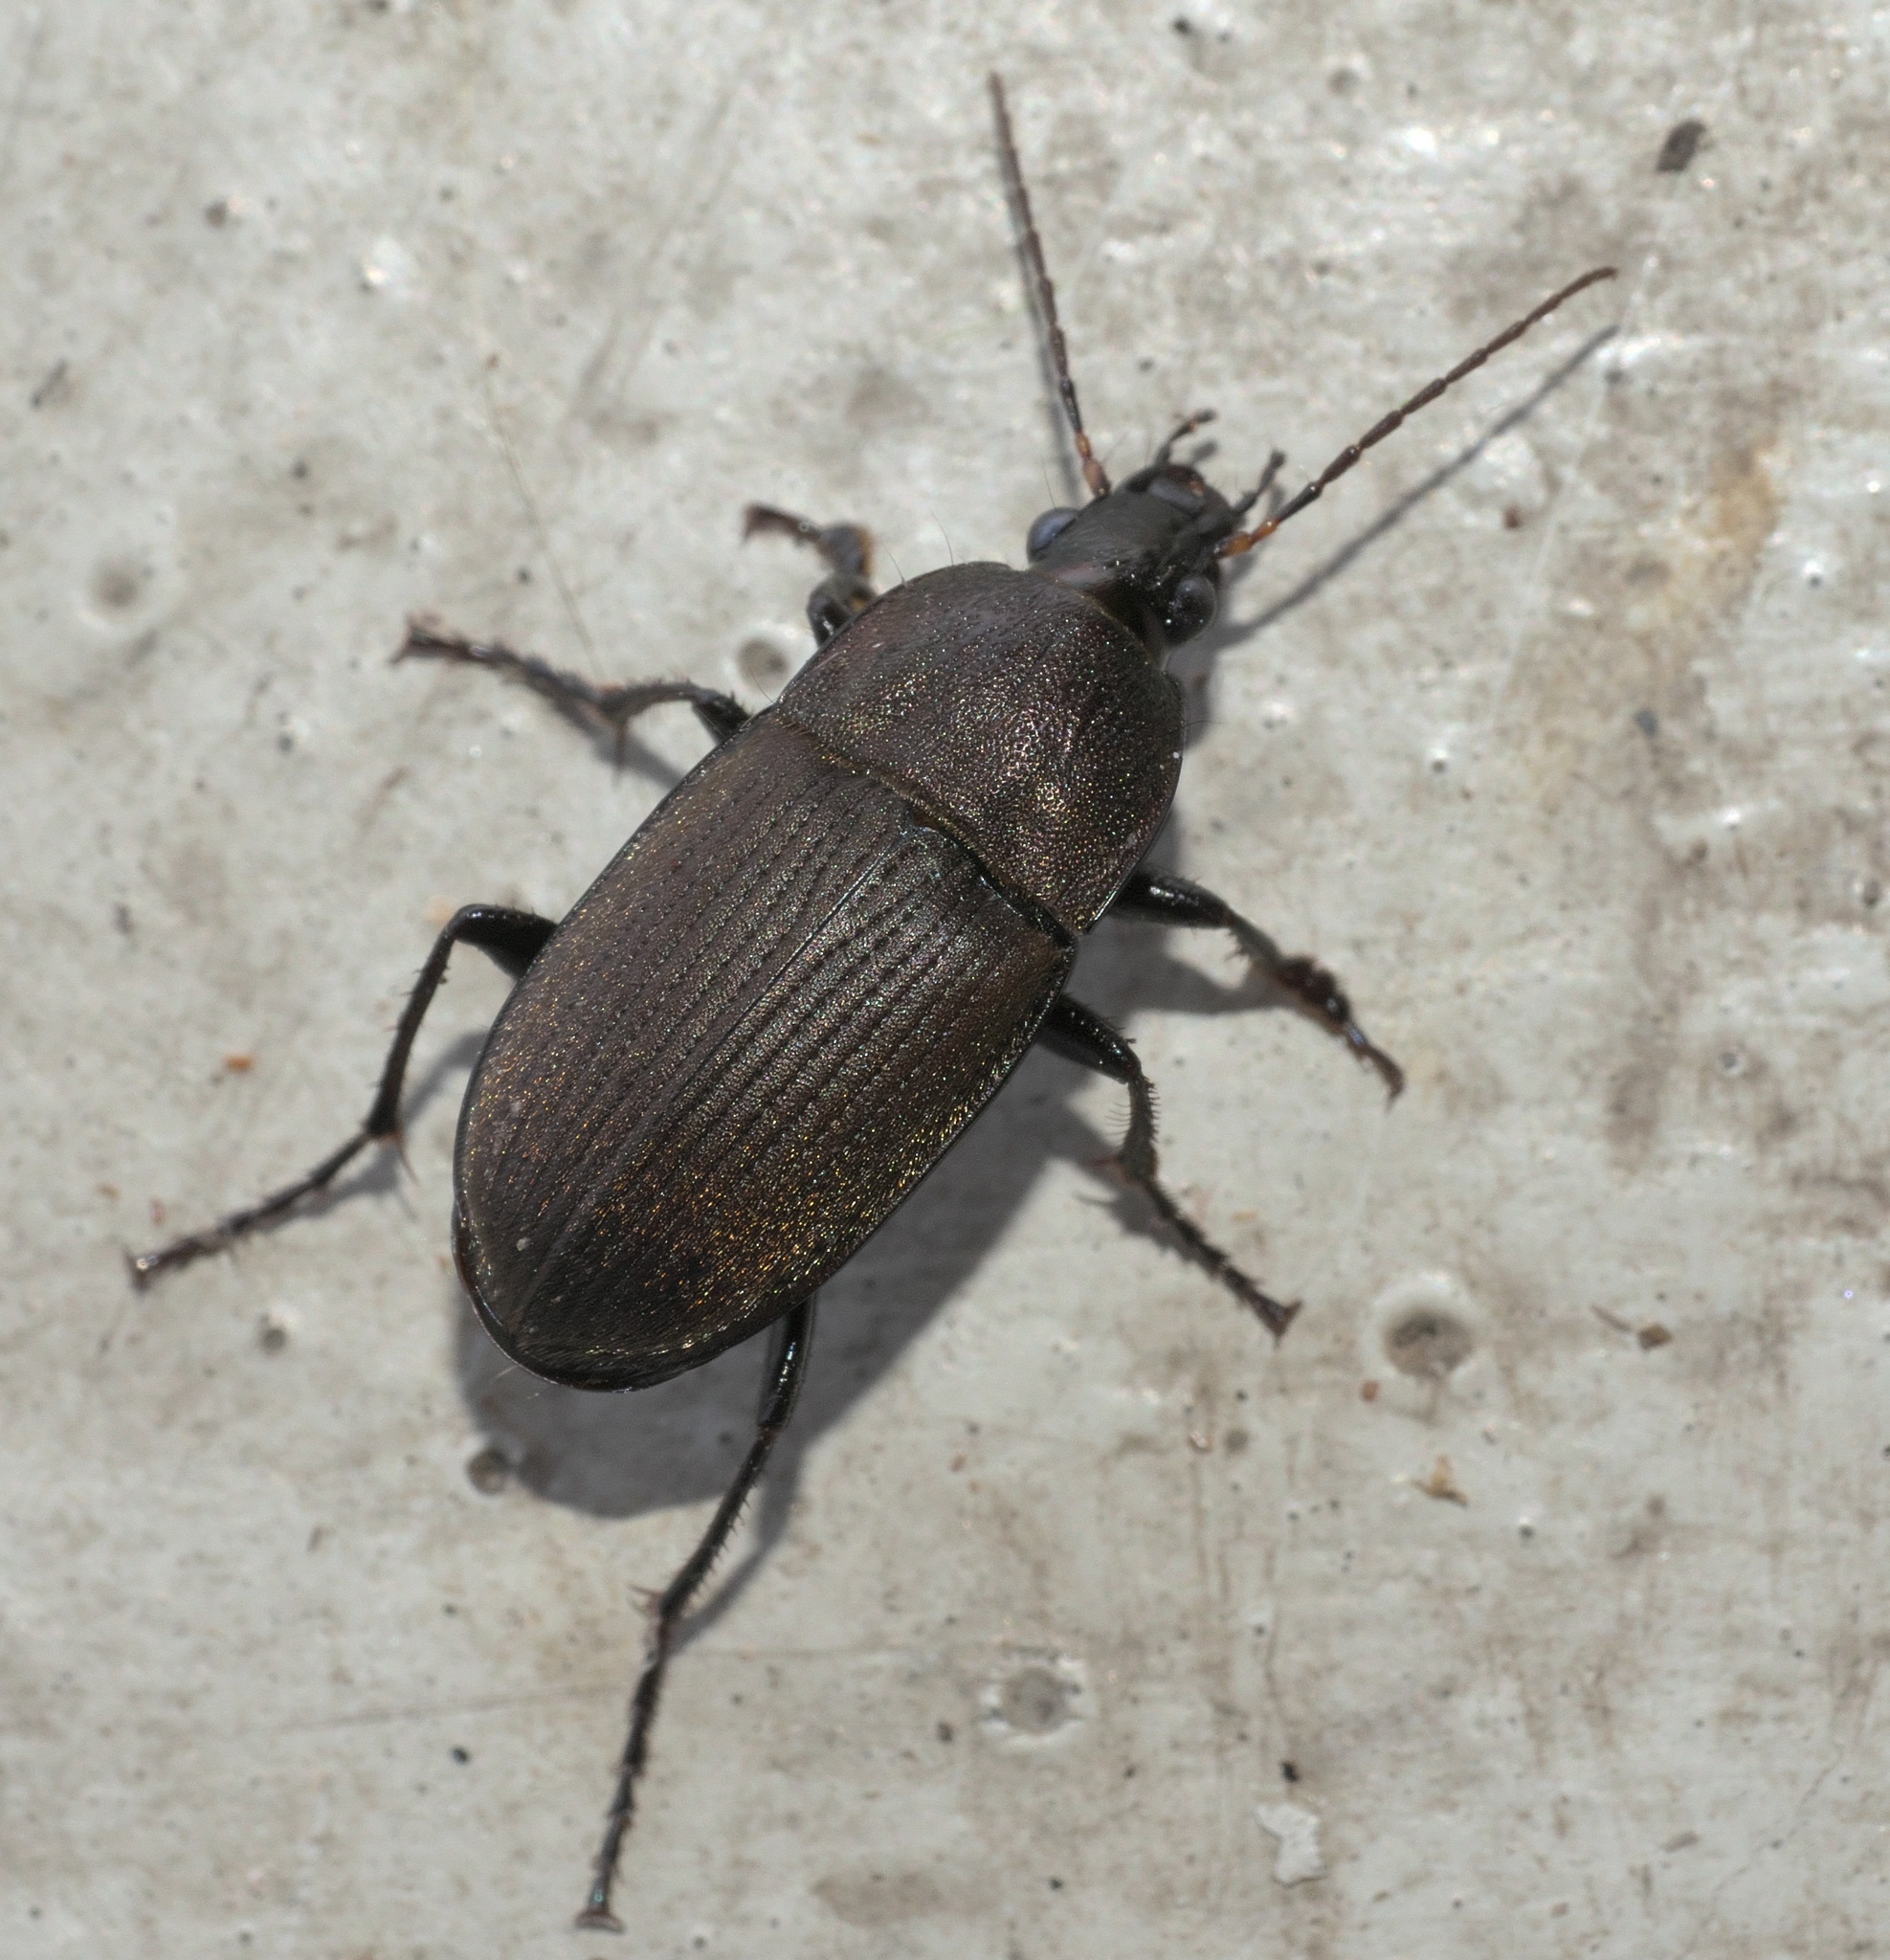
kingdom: Animalia
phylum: Arthropoda
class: Insecta
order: Coleoptera
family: Carabidae
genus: Chlaenius
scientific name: Chlaenius tomentosus
